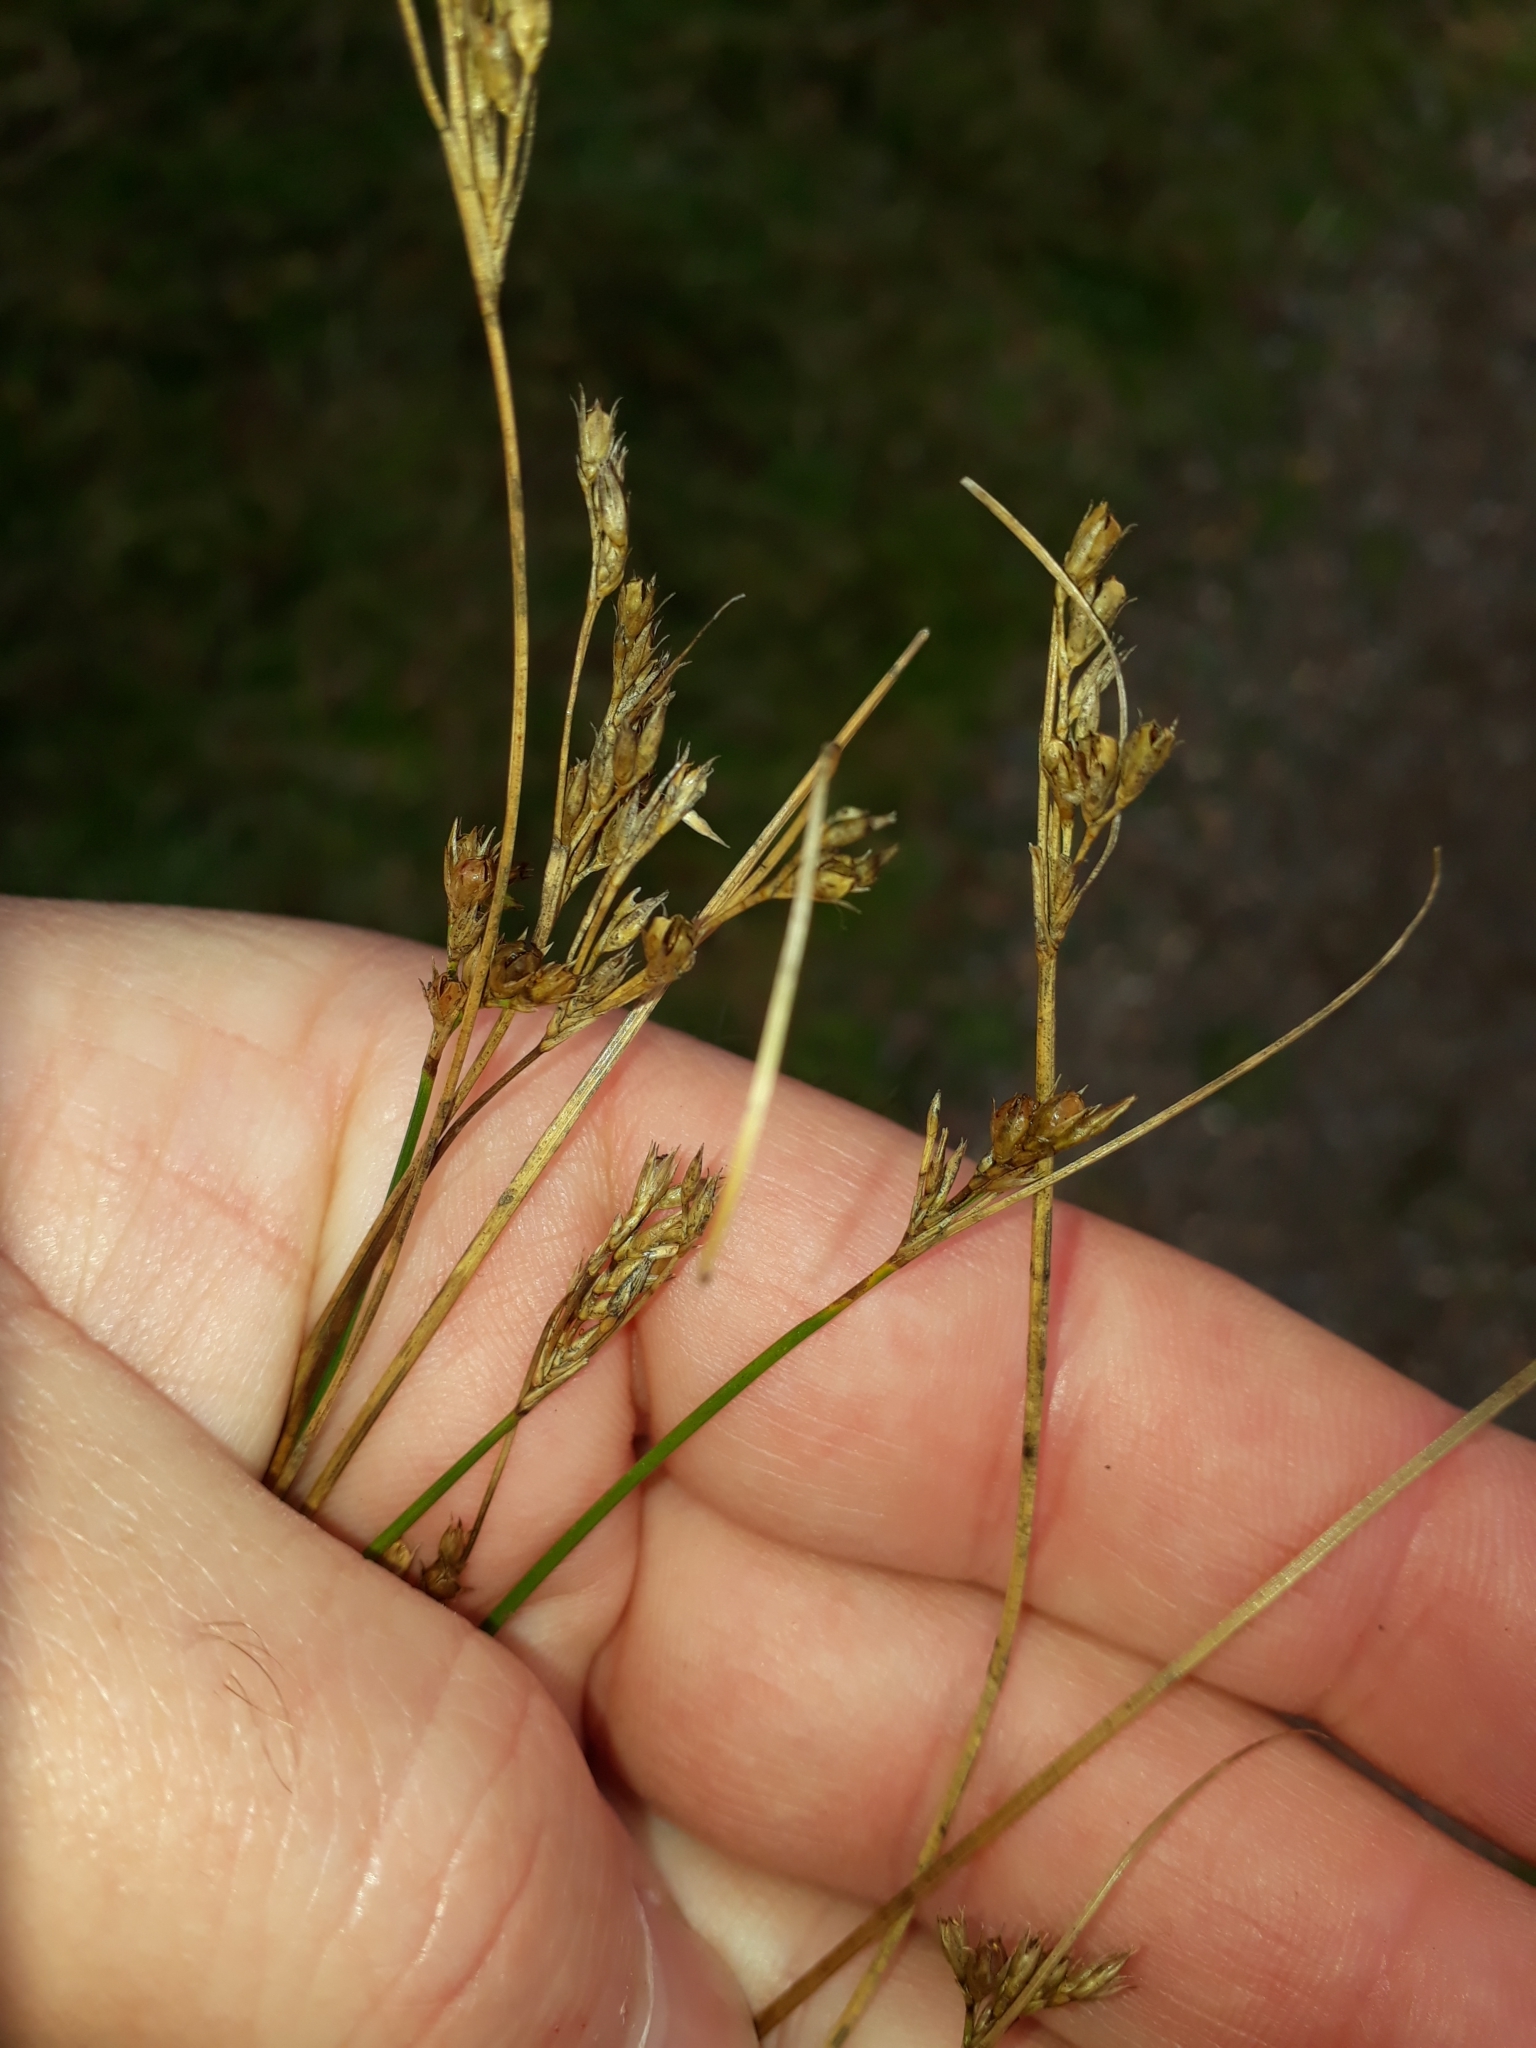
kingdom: Plantae
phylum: Tracheophyta
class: Liliopsida
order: Poales
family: Juncaceae
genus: Juncus
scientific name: Juncus dichotomus
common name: Forked rush
